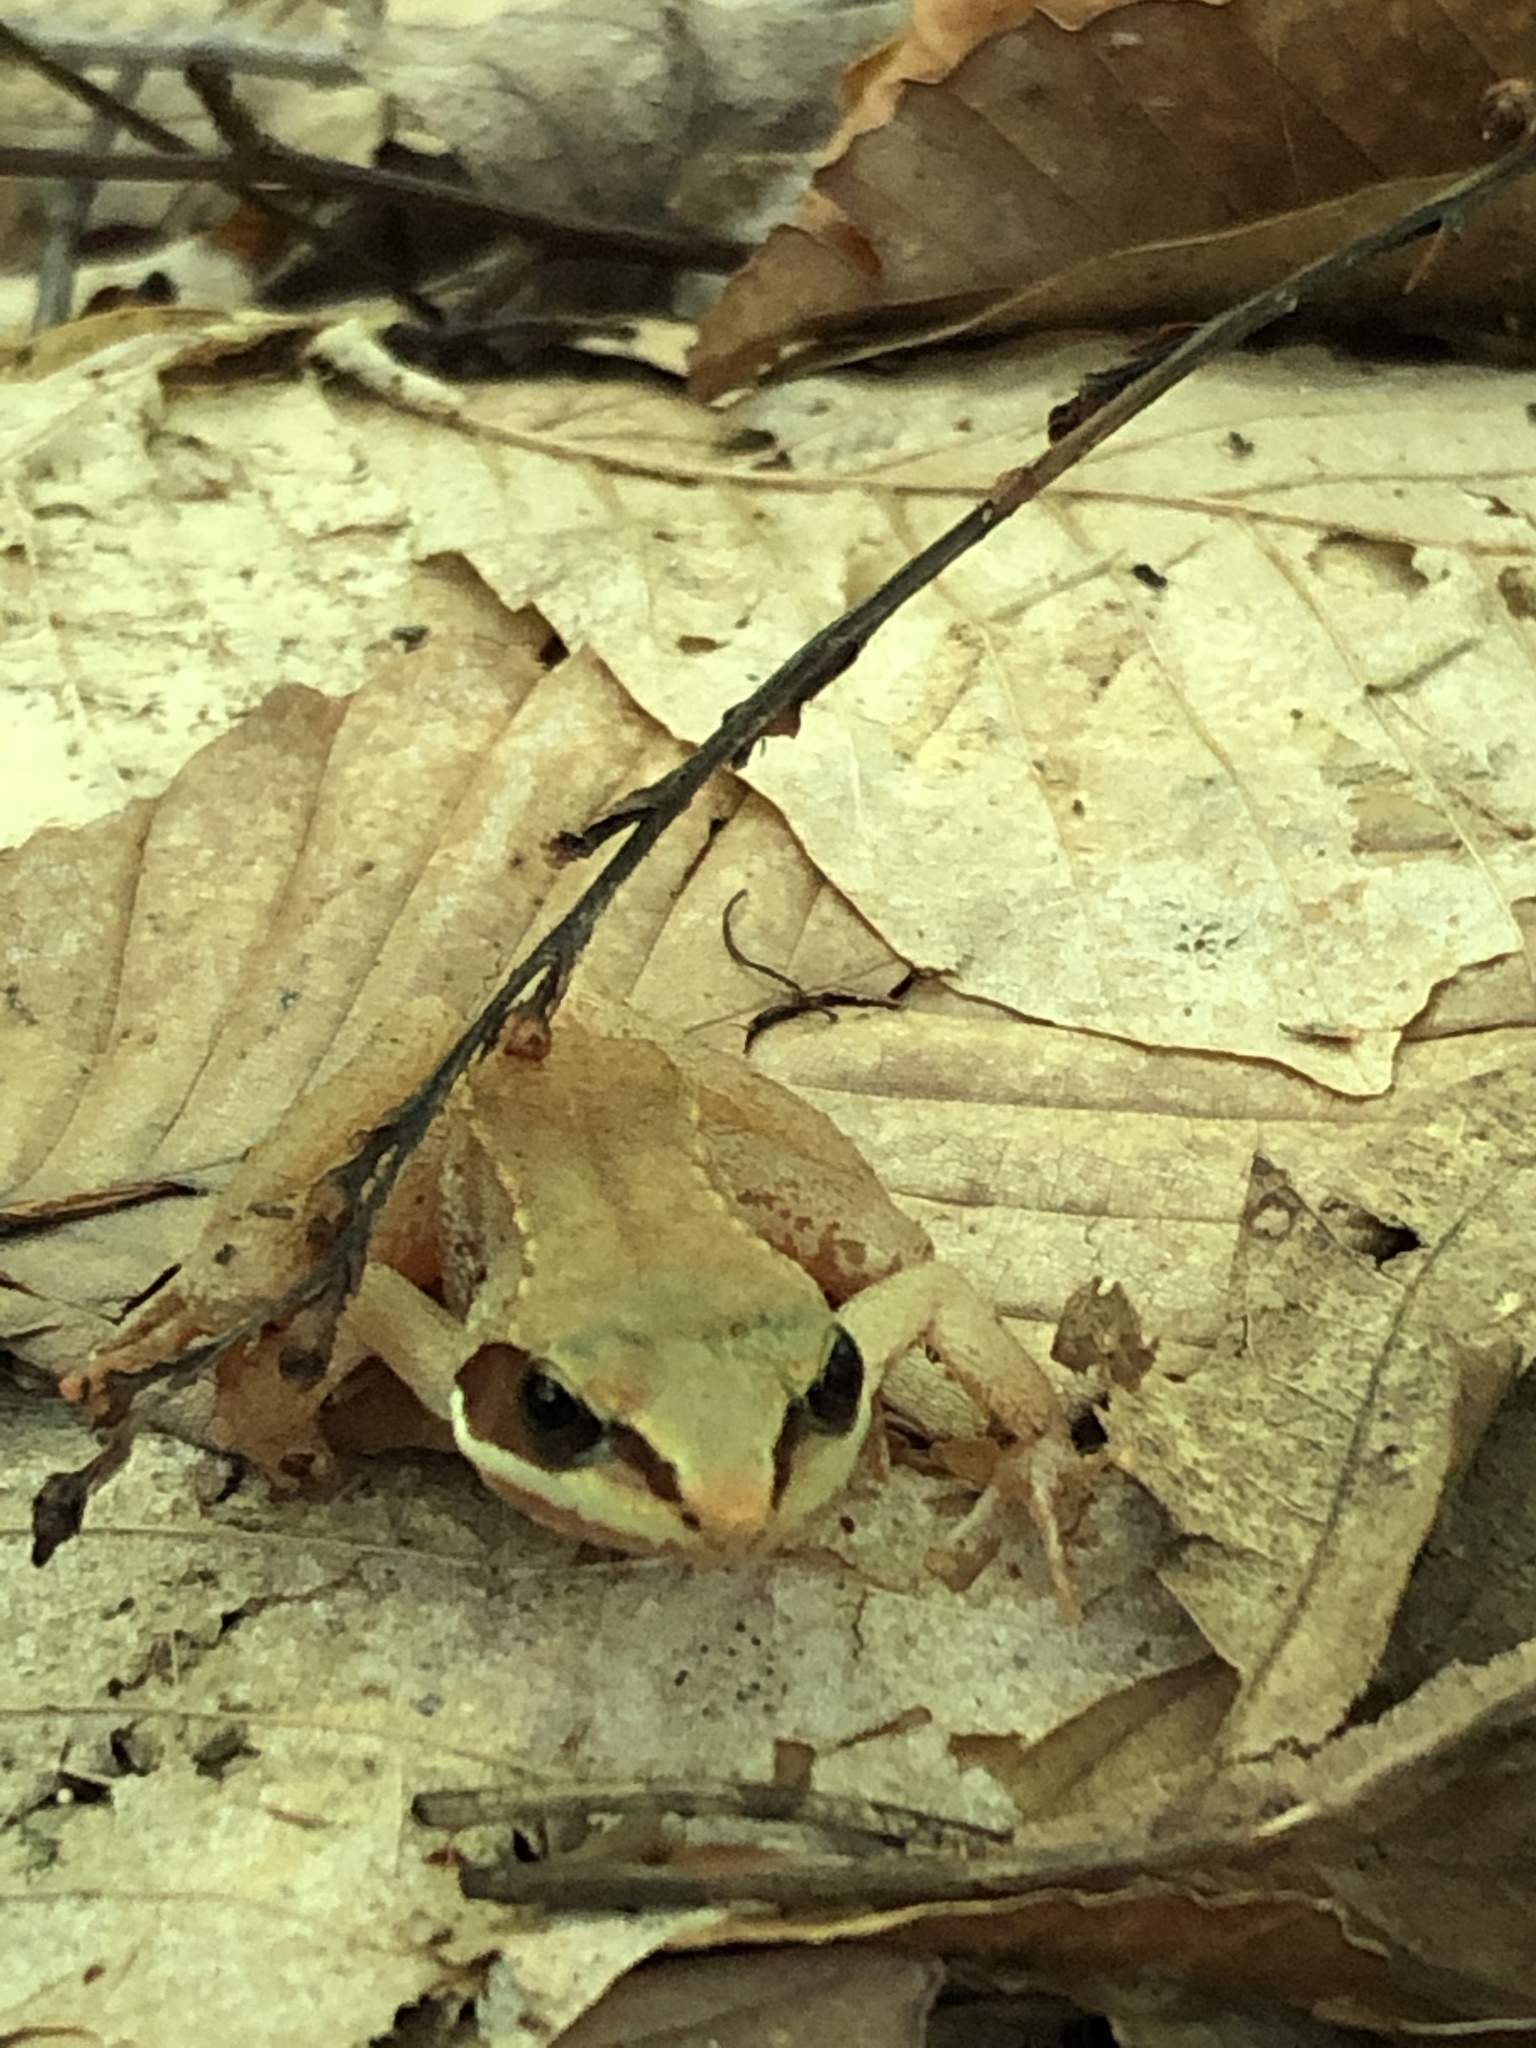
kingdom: Animalia
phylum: Chordata
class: Amphibia
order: Anura
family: Ranidae
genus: Lithobates
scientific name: Lithobates sylvaticus
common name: Wood frog
